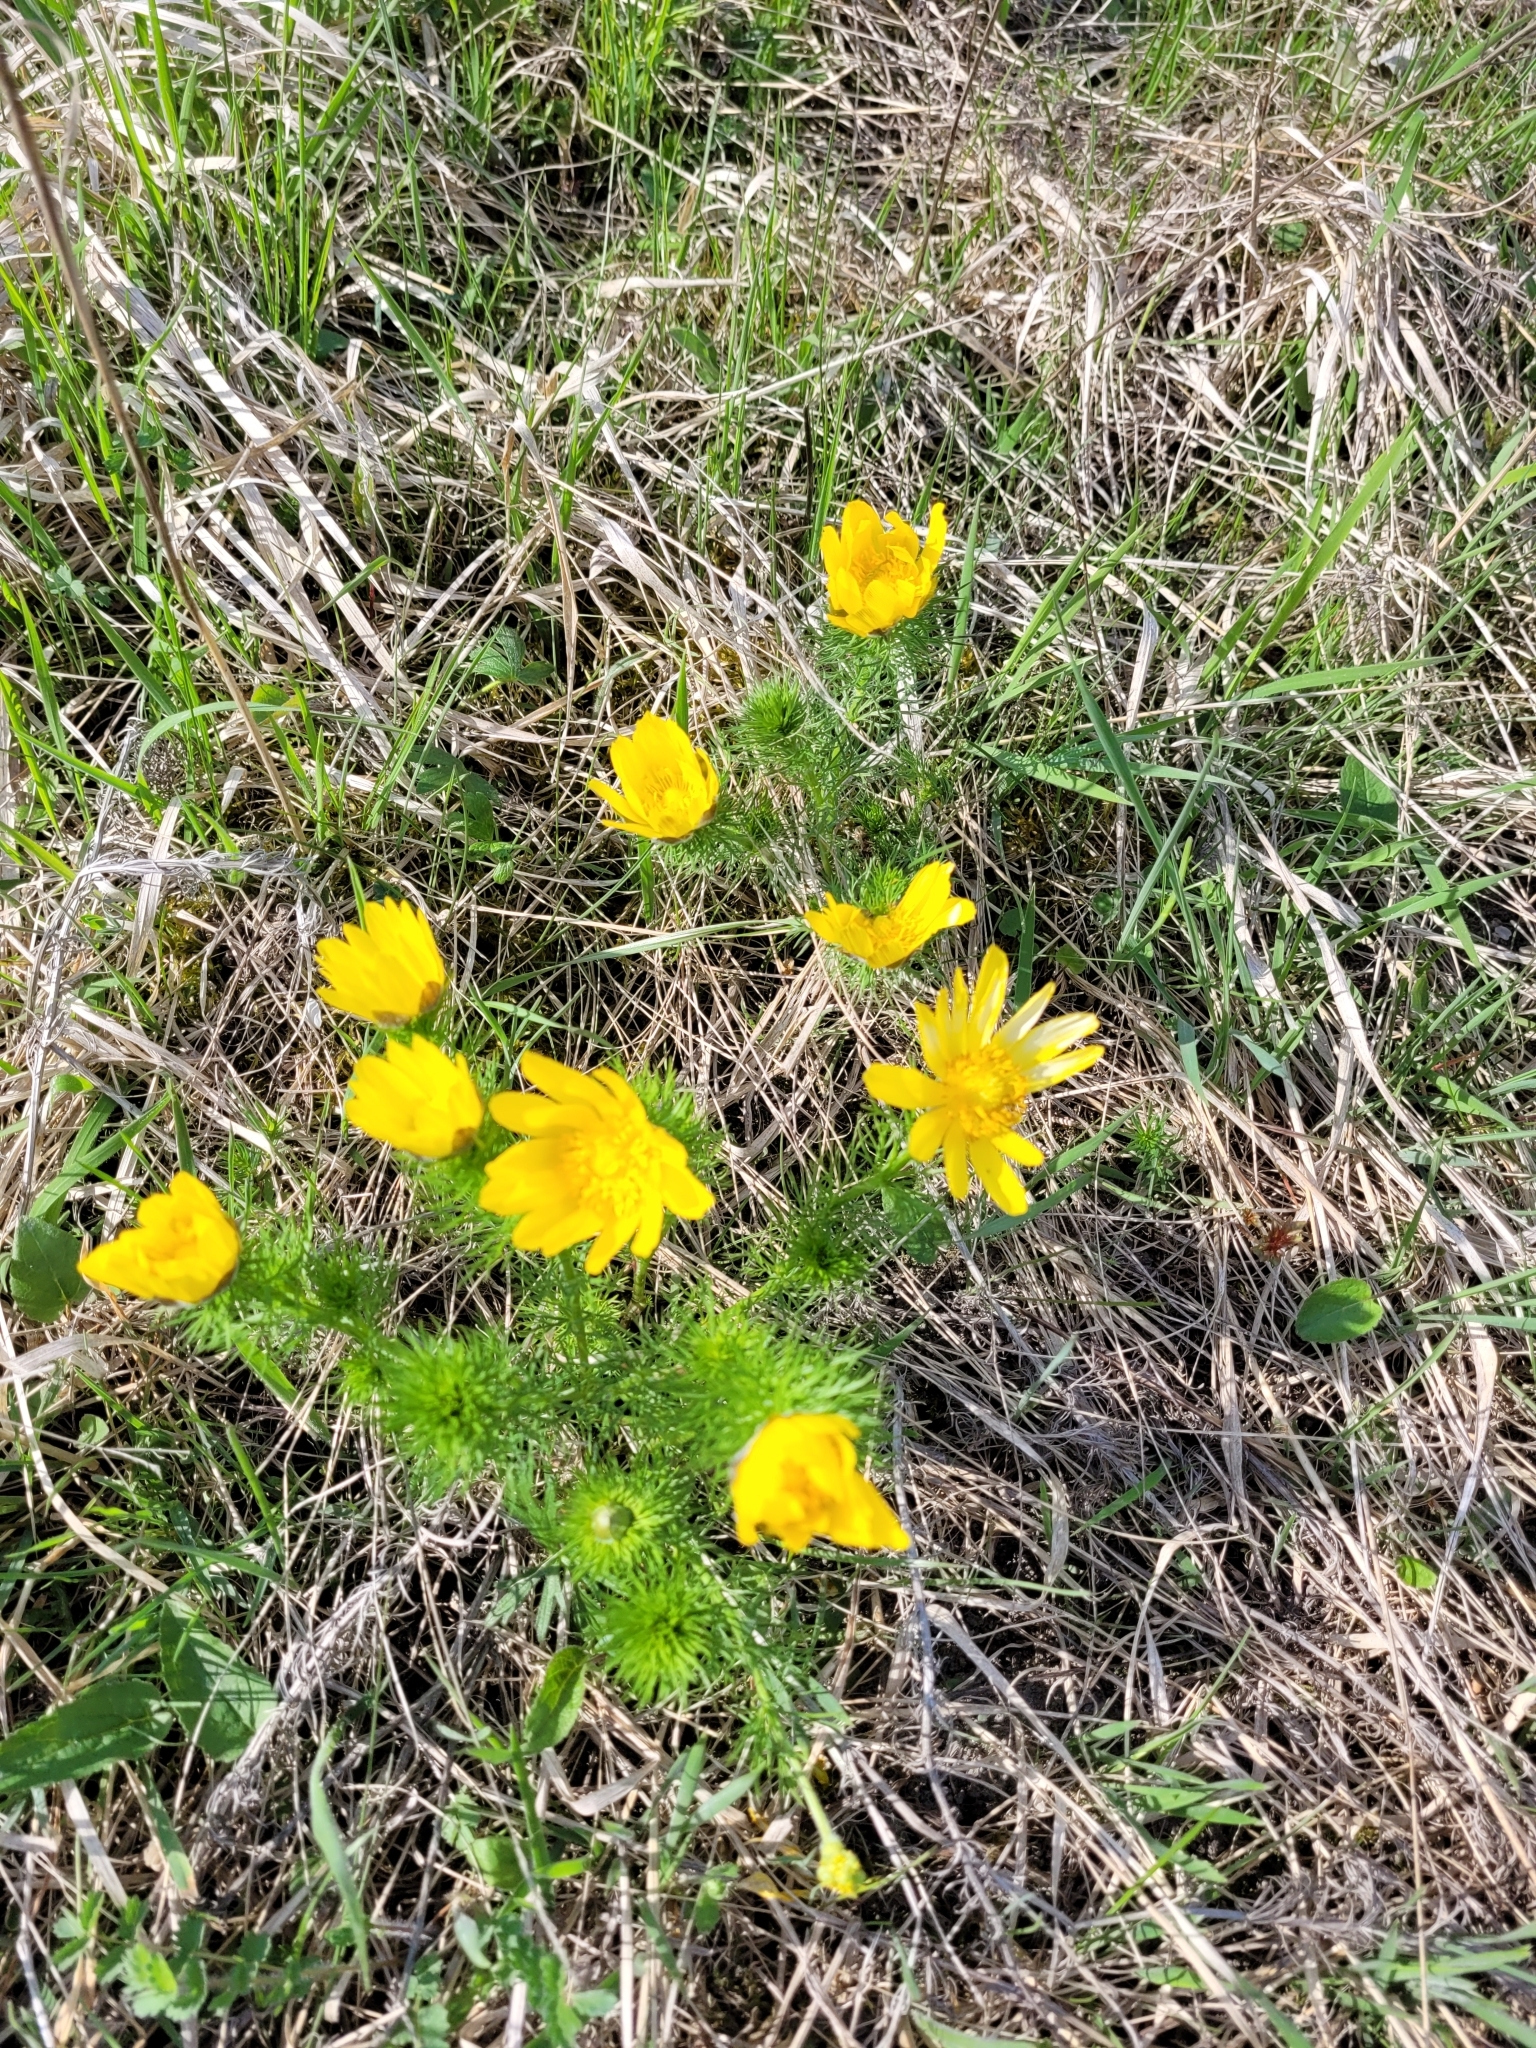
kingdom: Plantae
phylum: Tracheophyta
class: Magnoliopsida
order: Ranunculales
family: Ranunculaceae
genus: Adonis
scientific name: Adonis vernalis
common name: Yellow pheasants-eye
